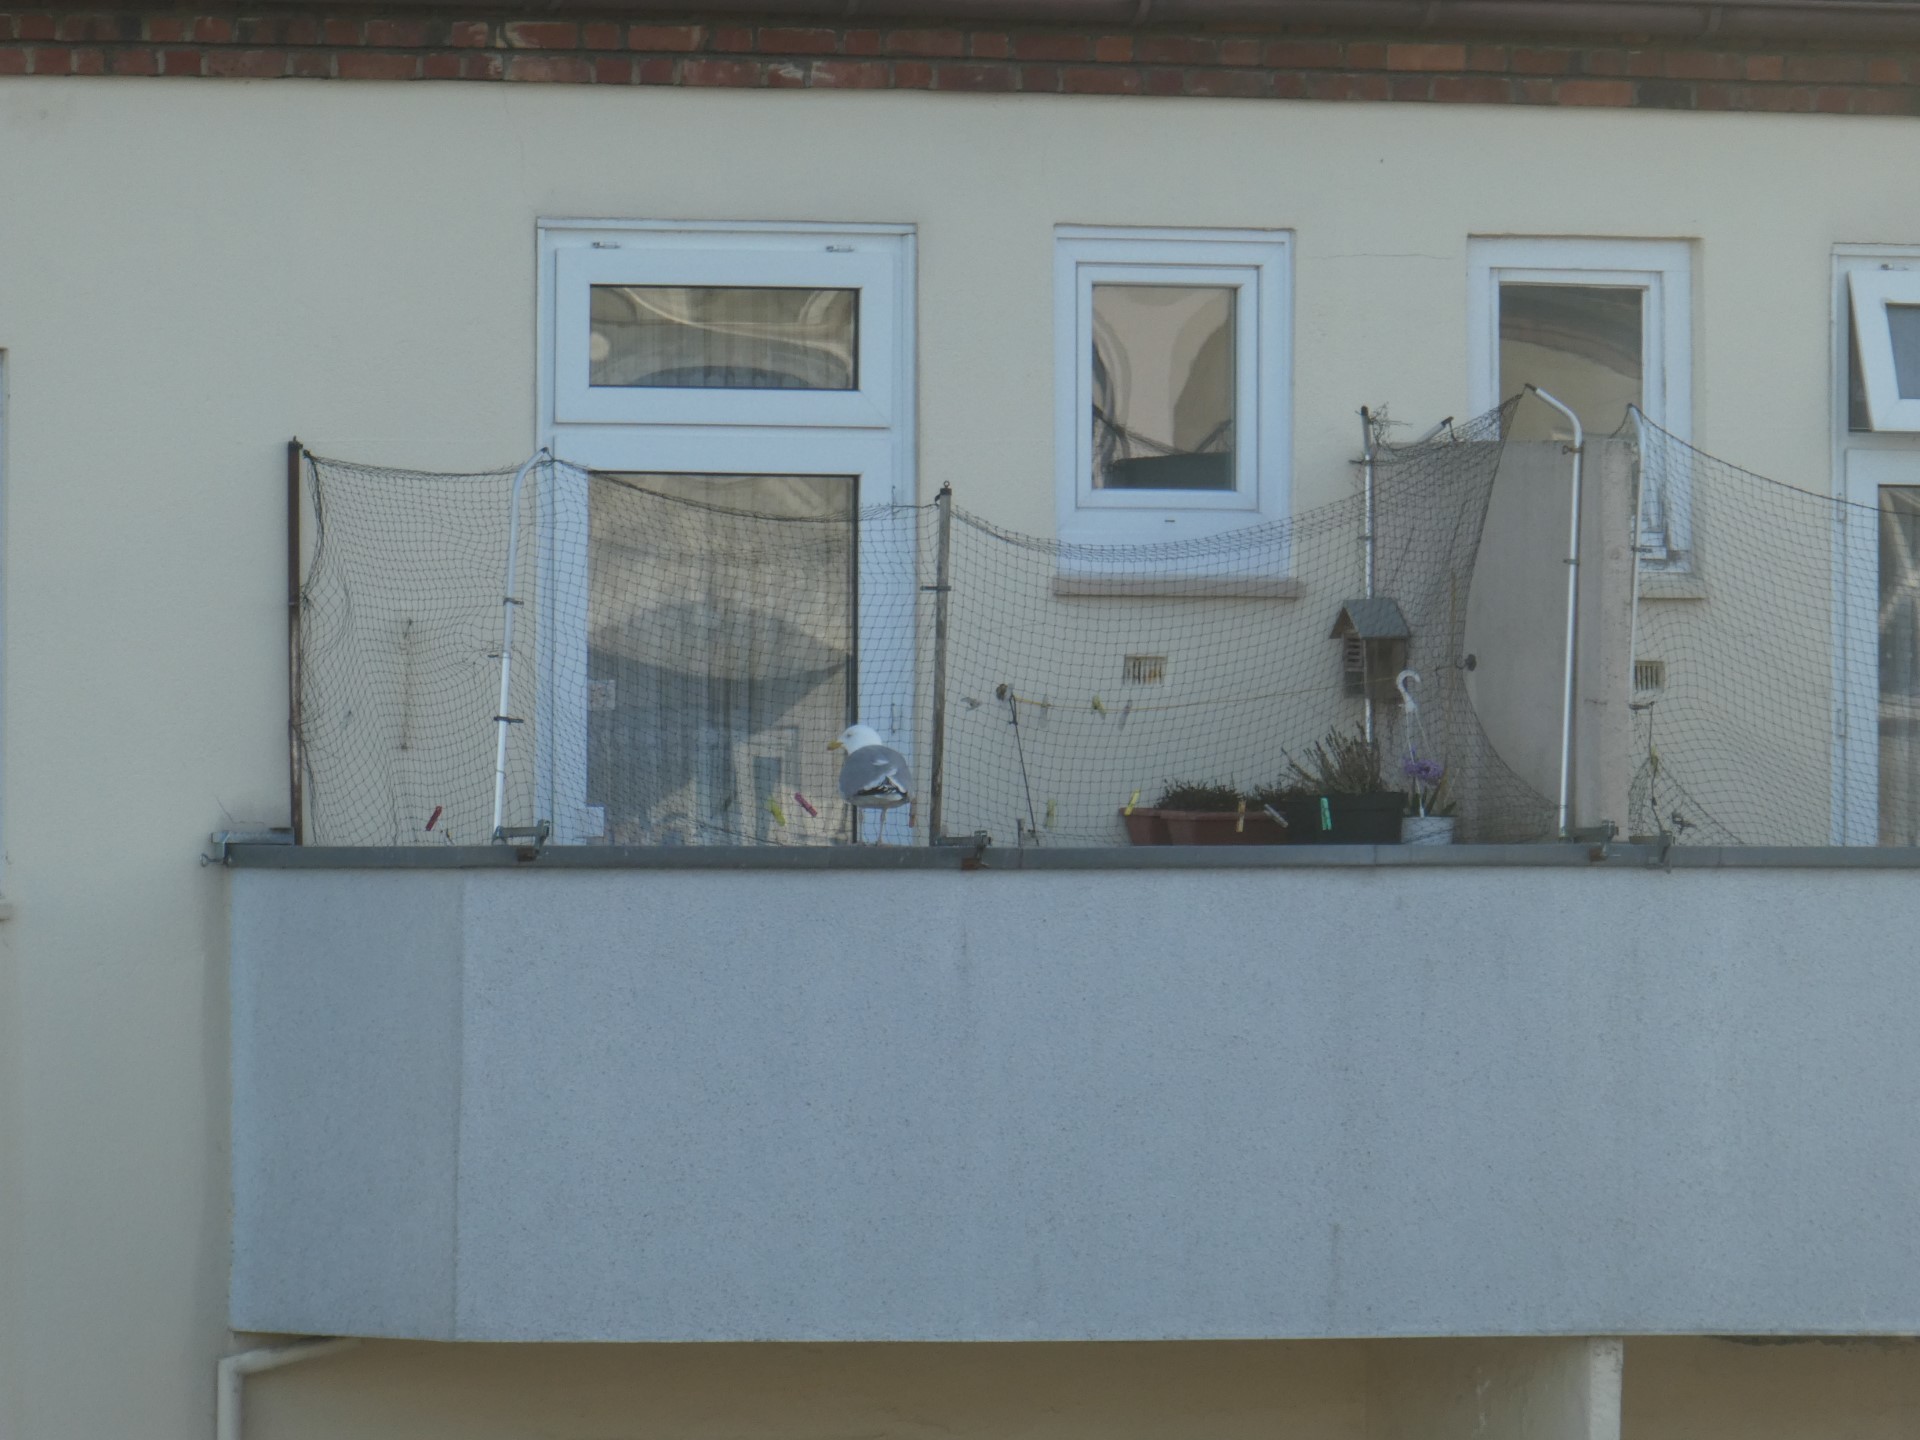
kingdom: Animalia
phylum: Chordata
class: Aves
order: Charadriiformes
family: Laridae
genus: Larus
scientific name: Larus argentatus
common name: Herring gull
